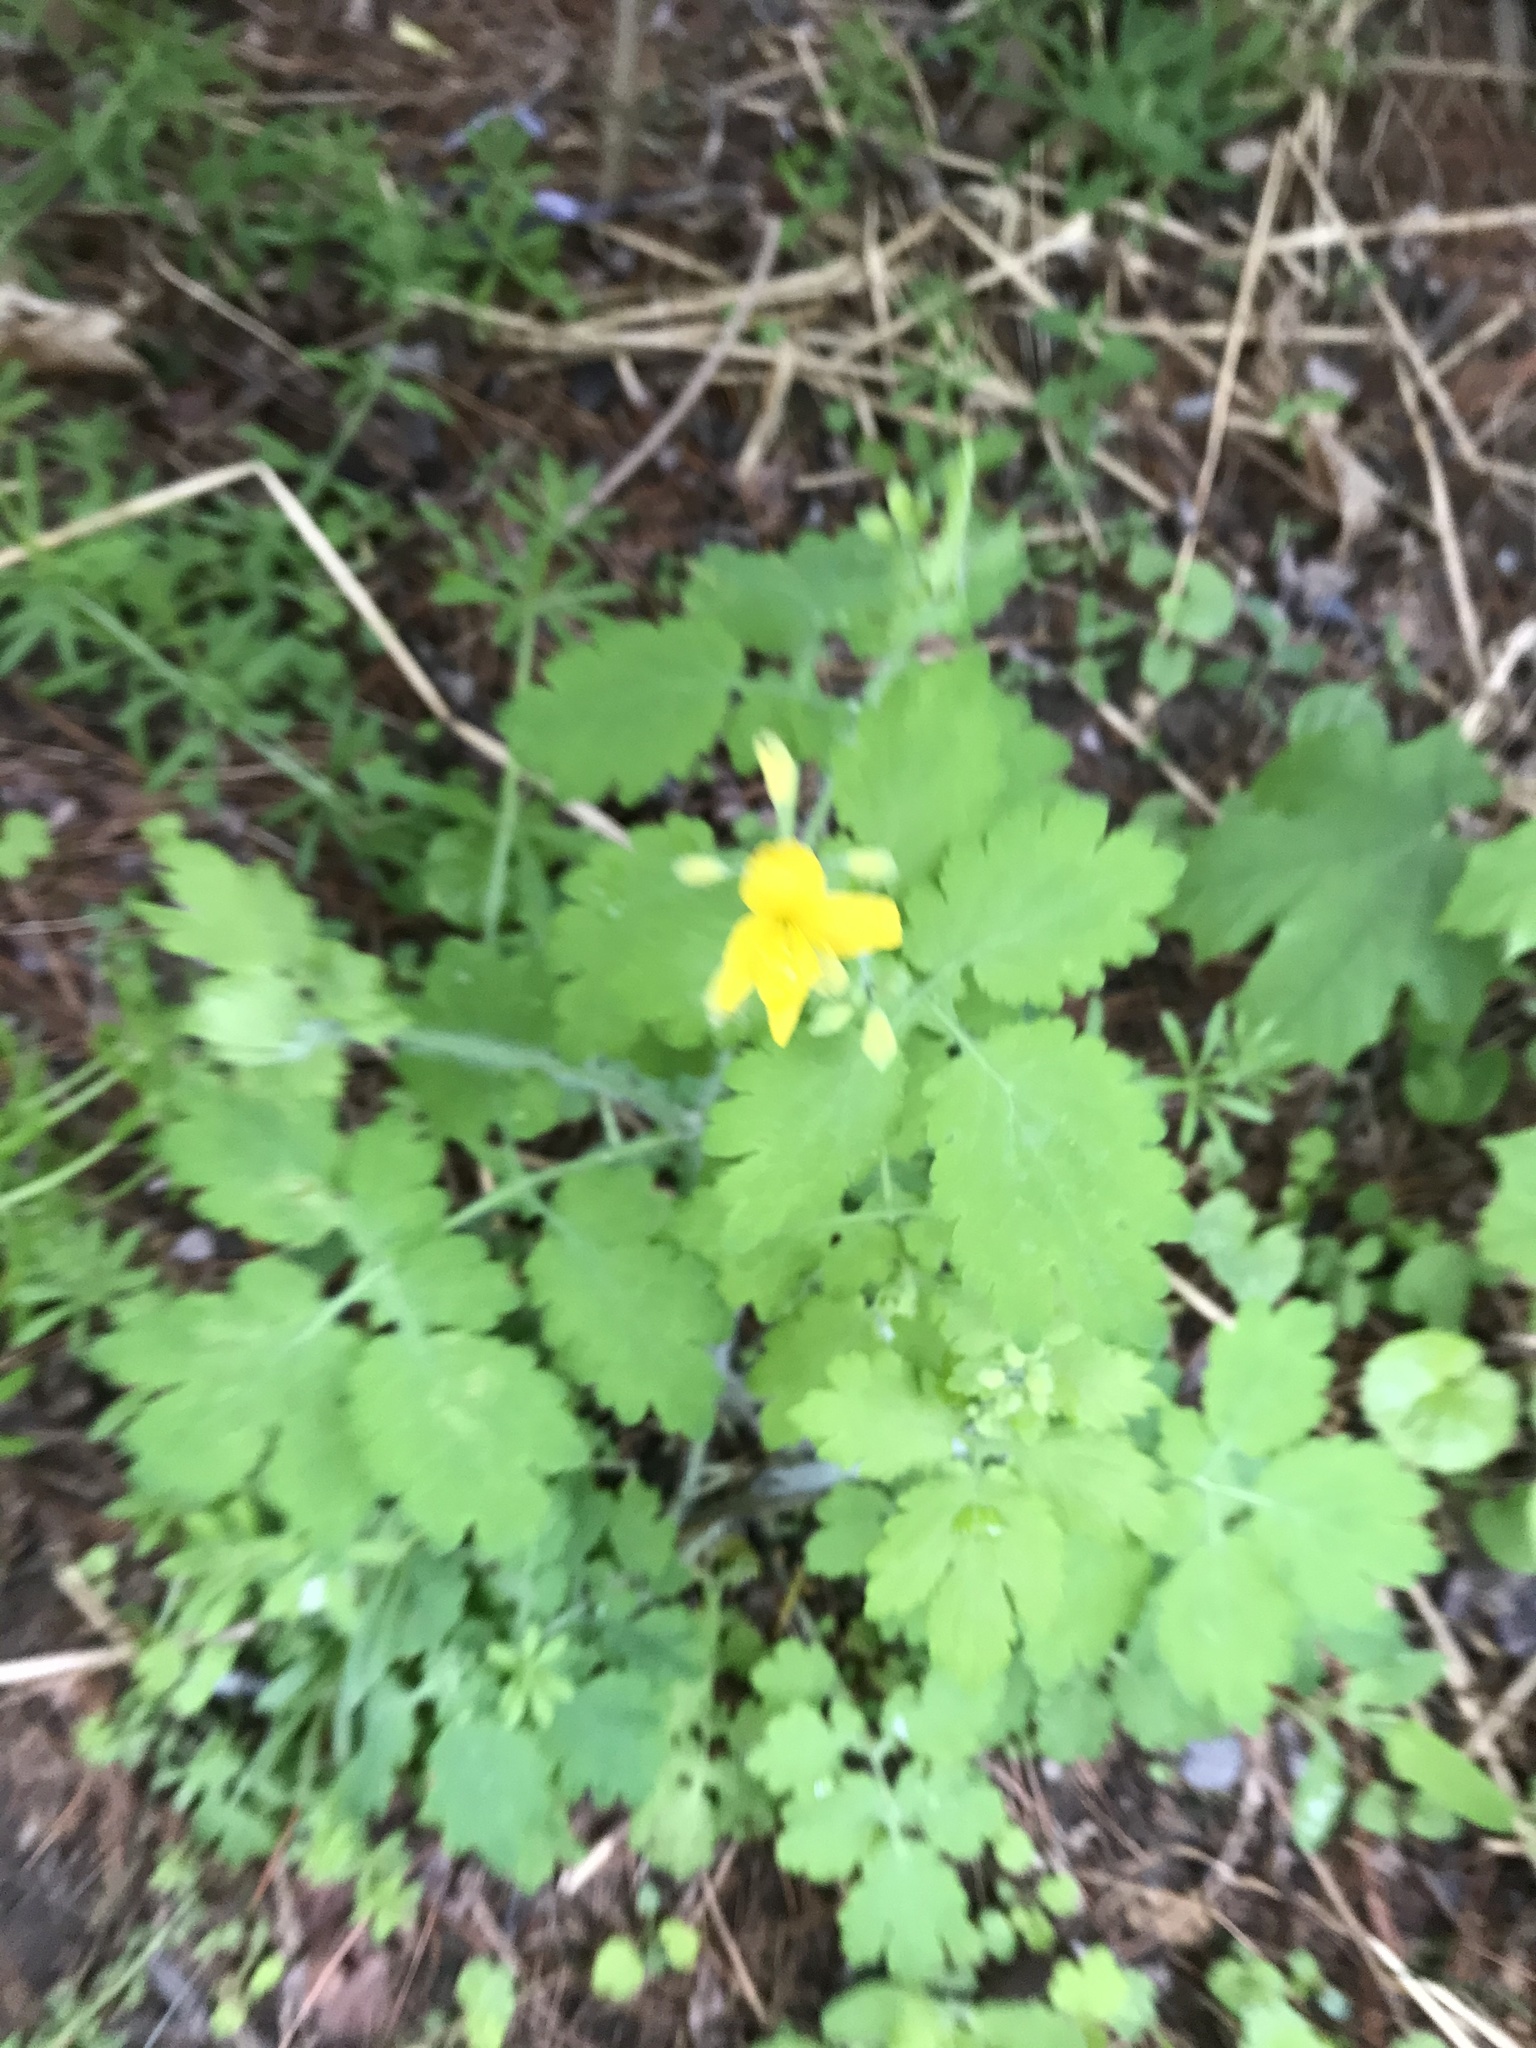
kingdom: Plantae
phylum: Tracheophyta
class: Magnoliopsida
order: Ranunculales
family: Papaveraceae
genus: Chelidonium
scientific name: Chelidonium majus
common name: Greater celandine
